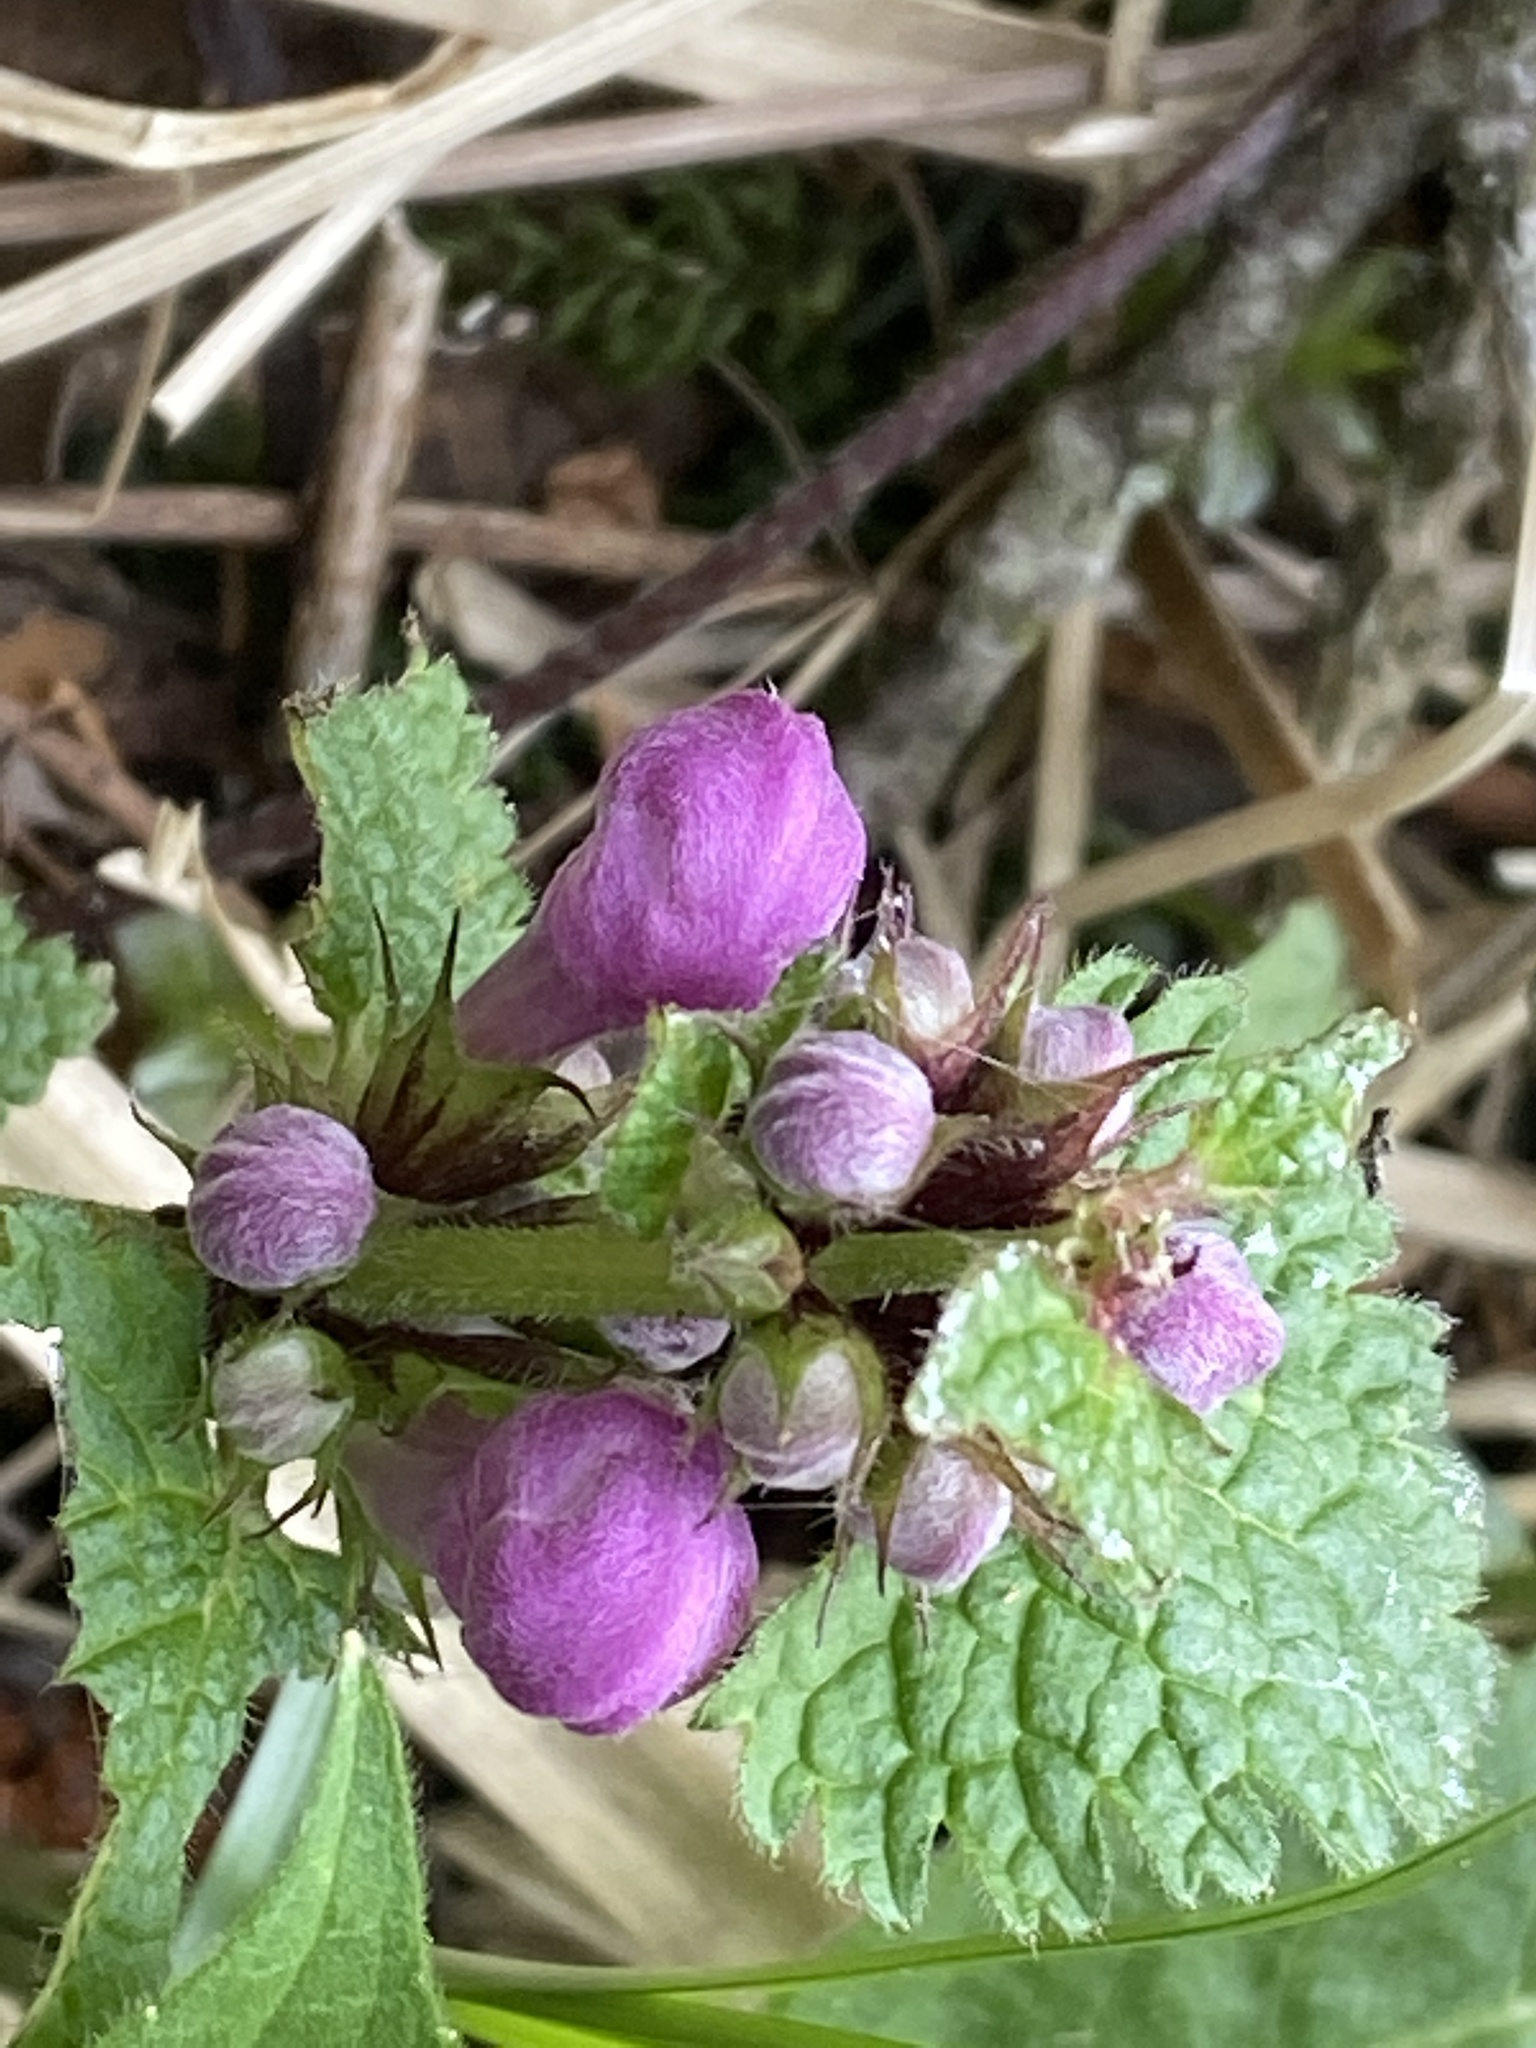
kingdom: Plantae
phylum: Tracheophyta
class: Magnoliopsida
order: Lamiales
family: Lamiaceae
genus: Lamium
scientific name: Lamium maculatum
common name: Spotted dead-nettle
